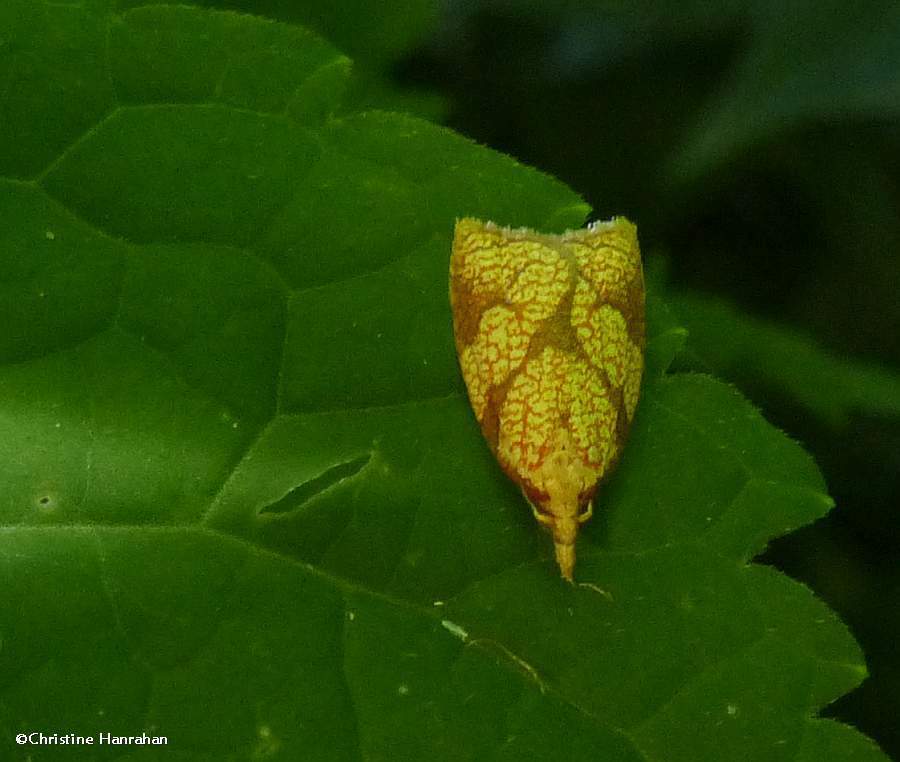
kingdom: Animalia
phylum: Arthropoda
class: Insecta
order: Lepidoptera
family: Tortricidae
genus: Cenopis
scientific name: Cenopis reticulatana
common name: Reticulated fruitworm moth
